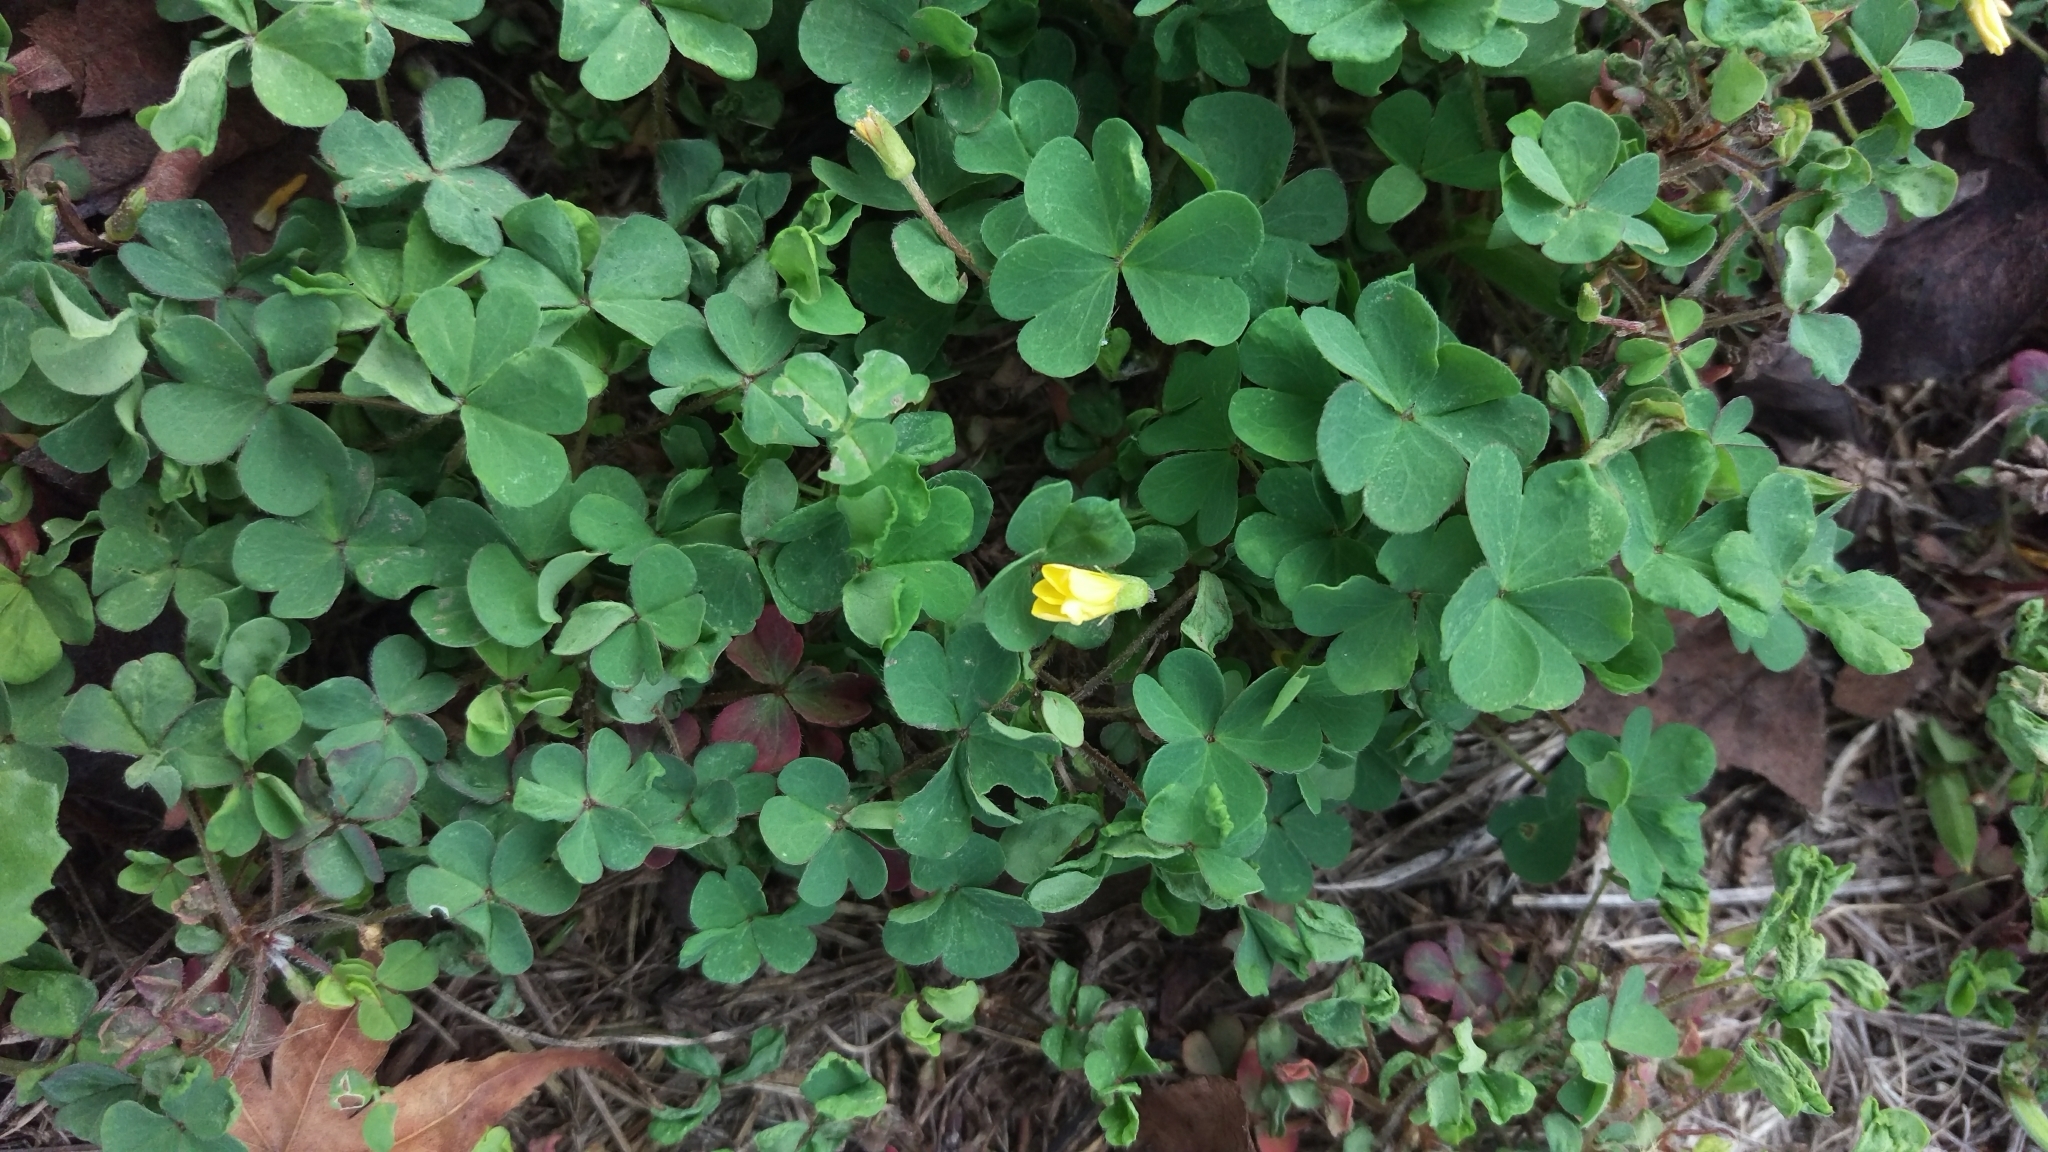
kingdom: Plantae
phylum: Tracheophyta
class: Magnoliopsida
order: Oxalidales
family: Oxalidaceae
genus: Oxalis
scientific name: Oxalis corniculata
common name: Procumbent yellow-sorrel
